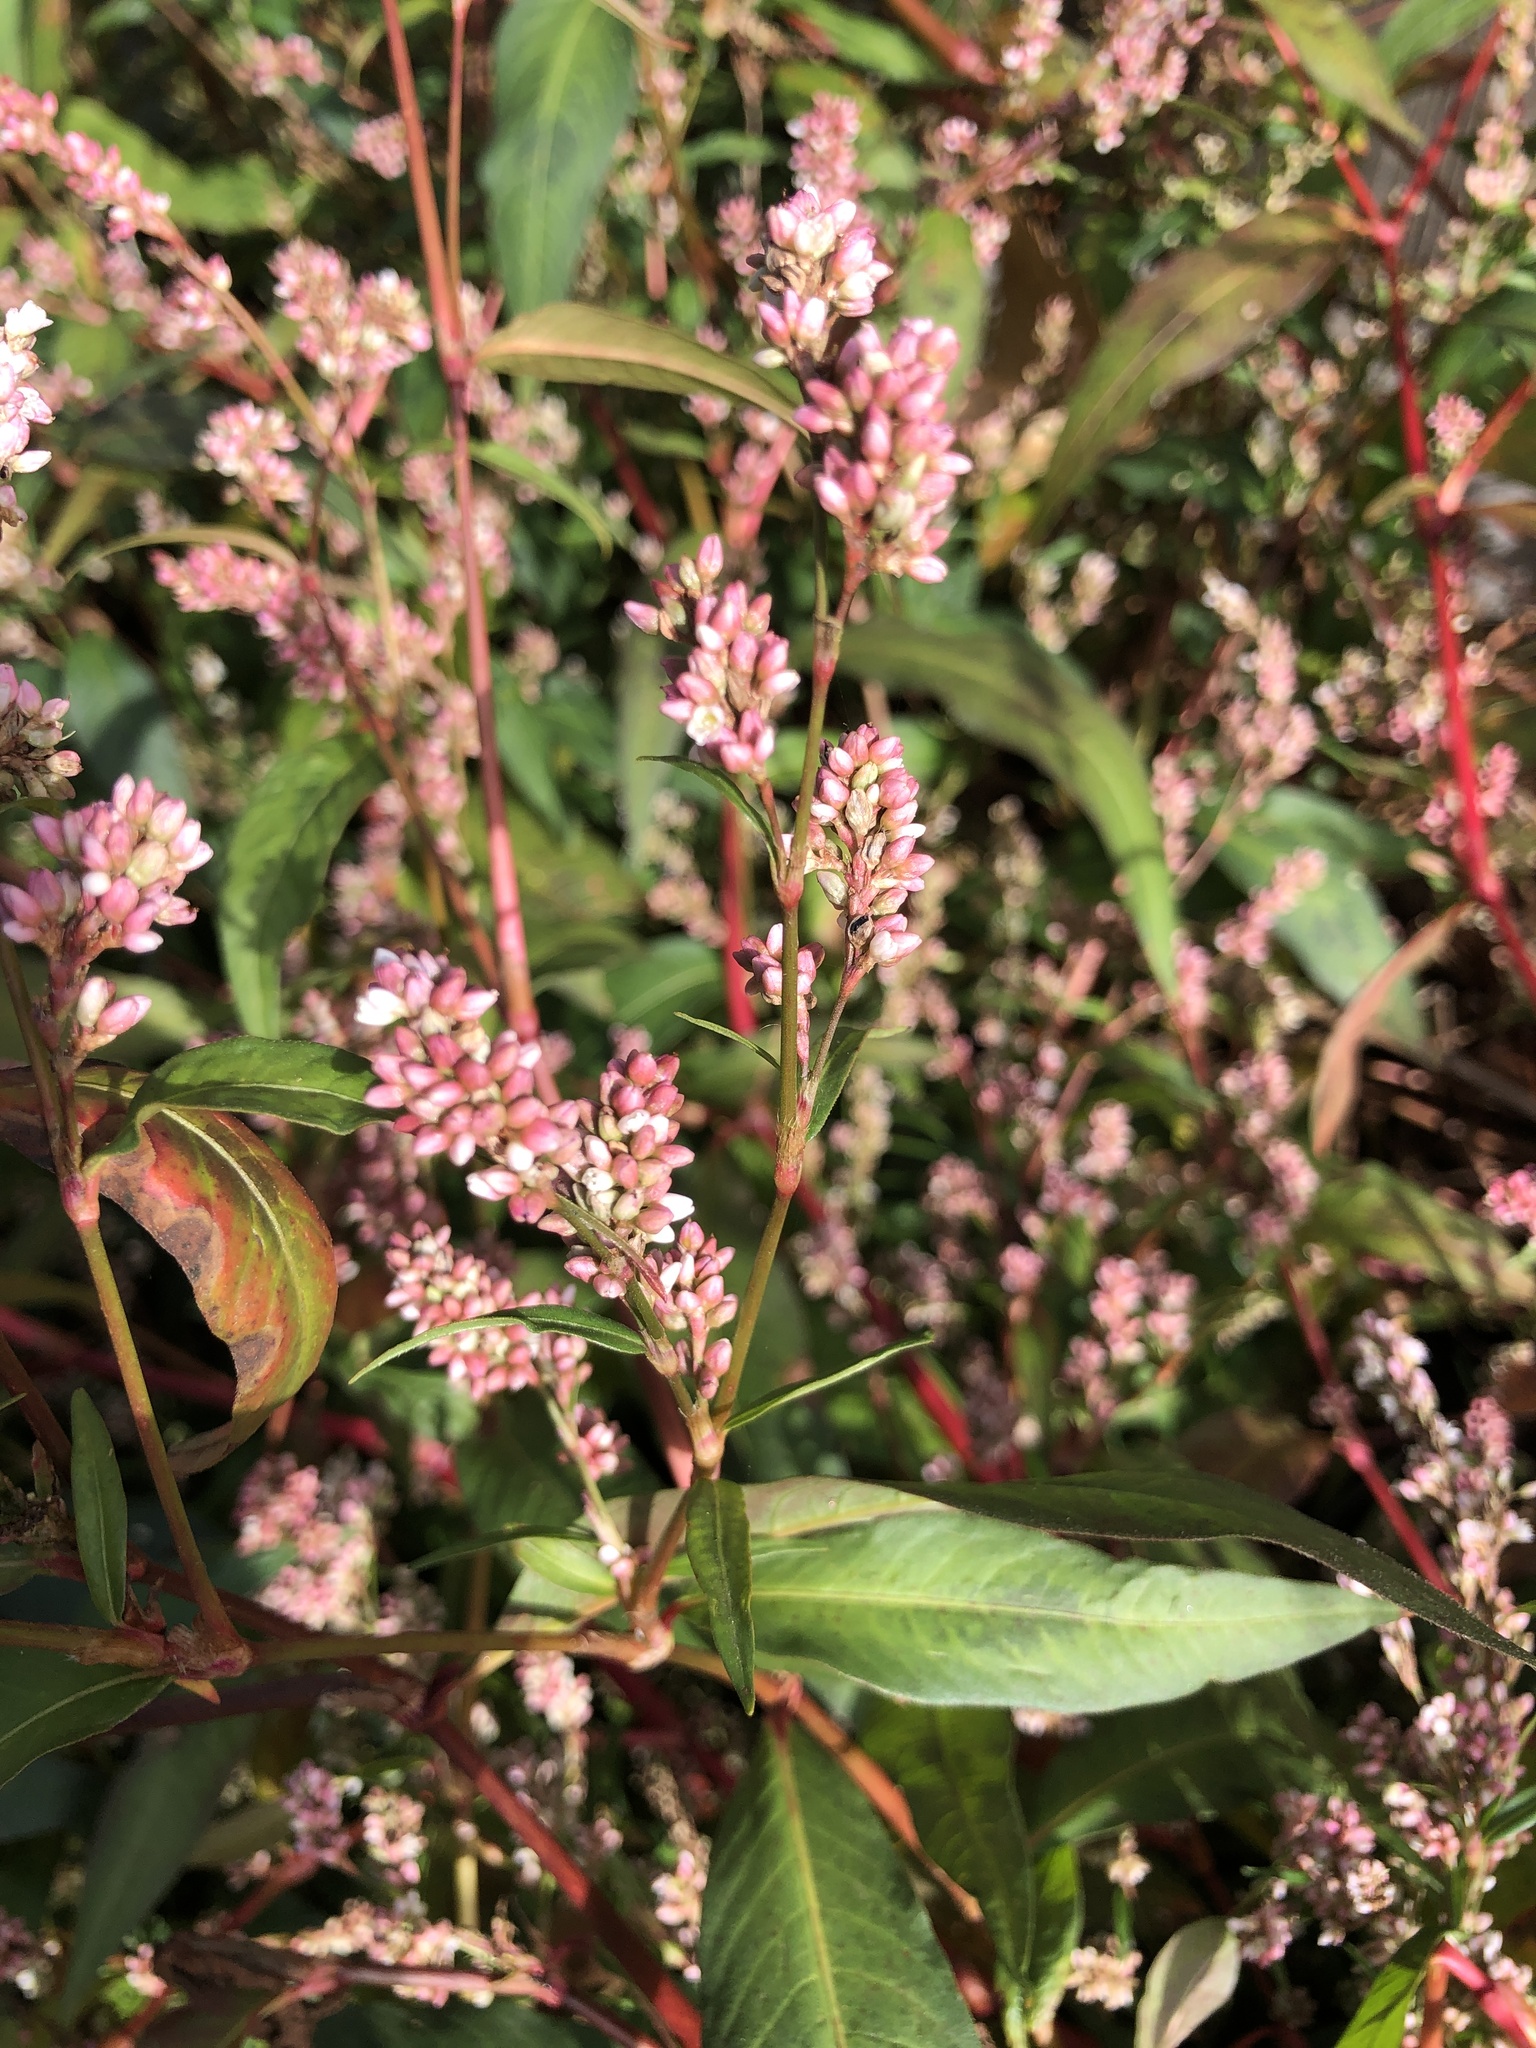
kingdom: Plantae
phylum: Tracheophyta
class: Magnoliopsida
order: Caryophyllales
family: Polygonaceae
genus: Persicaria
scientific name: Persicaria maculosa
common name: Redshank
